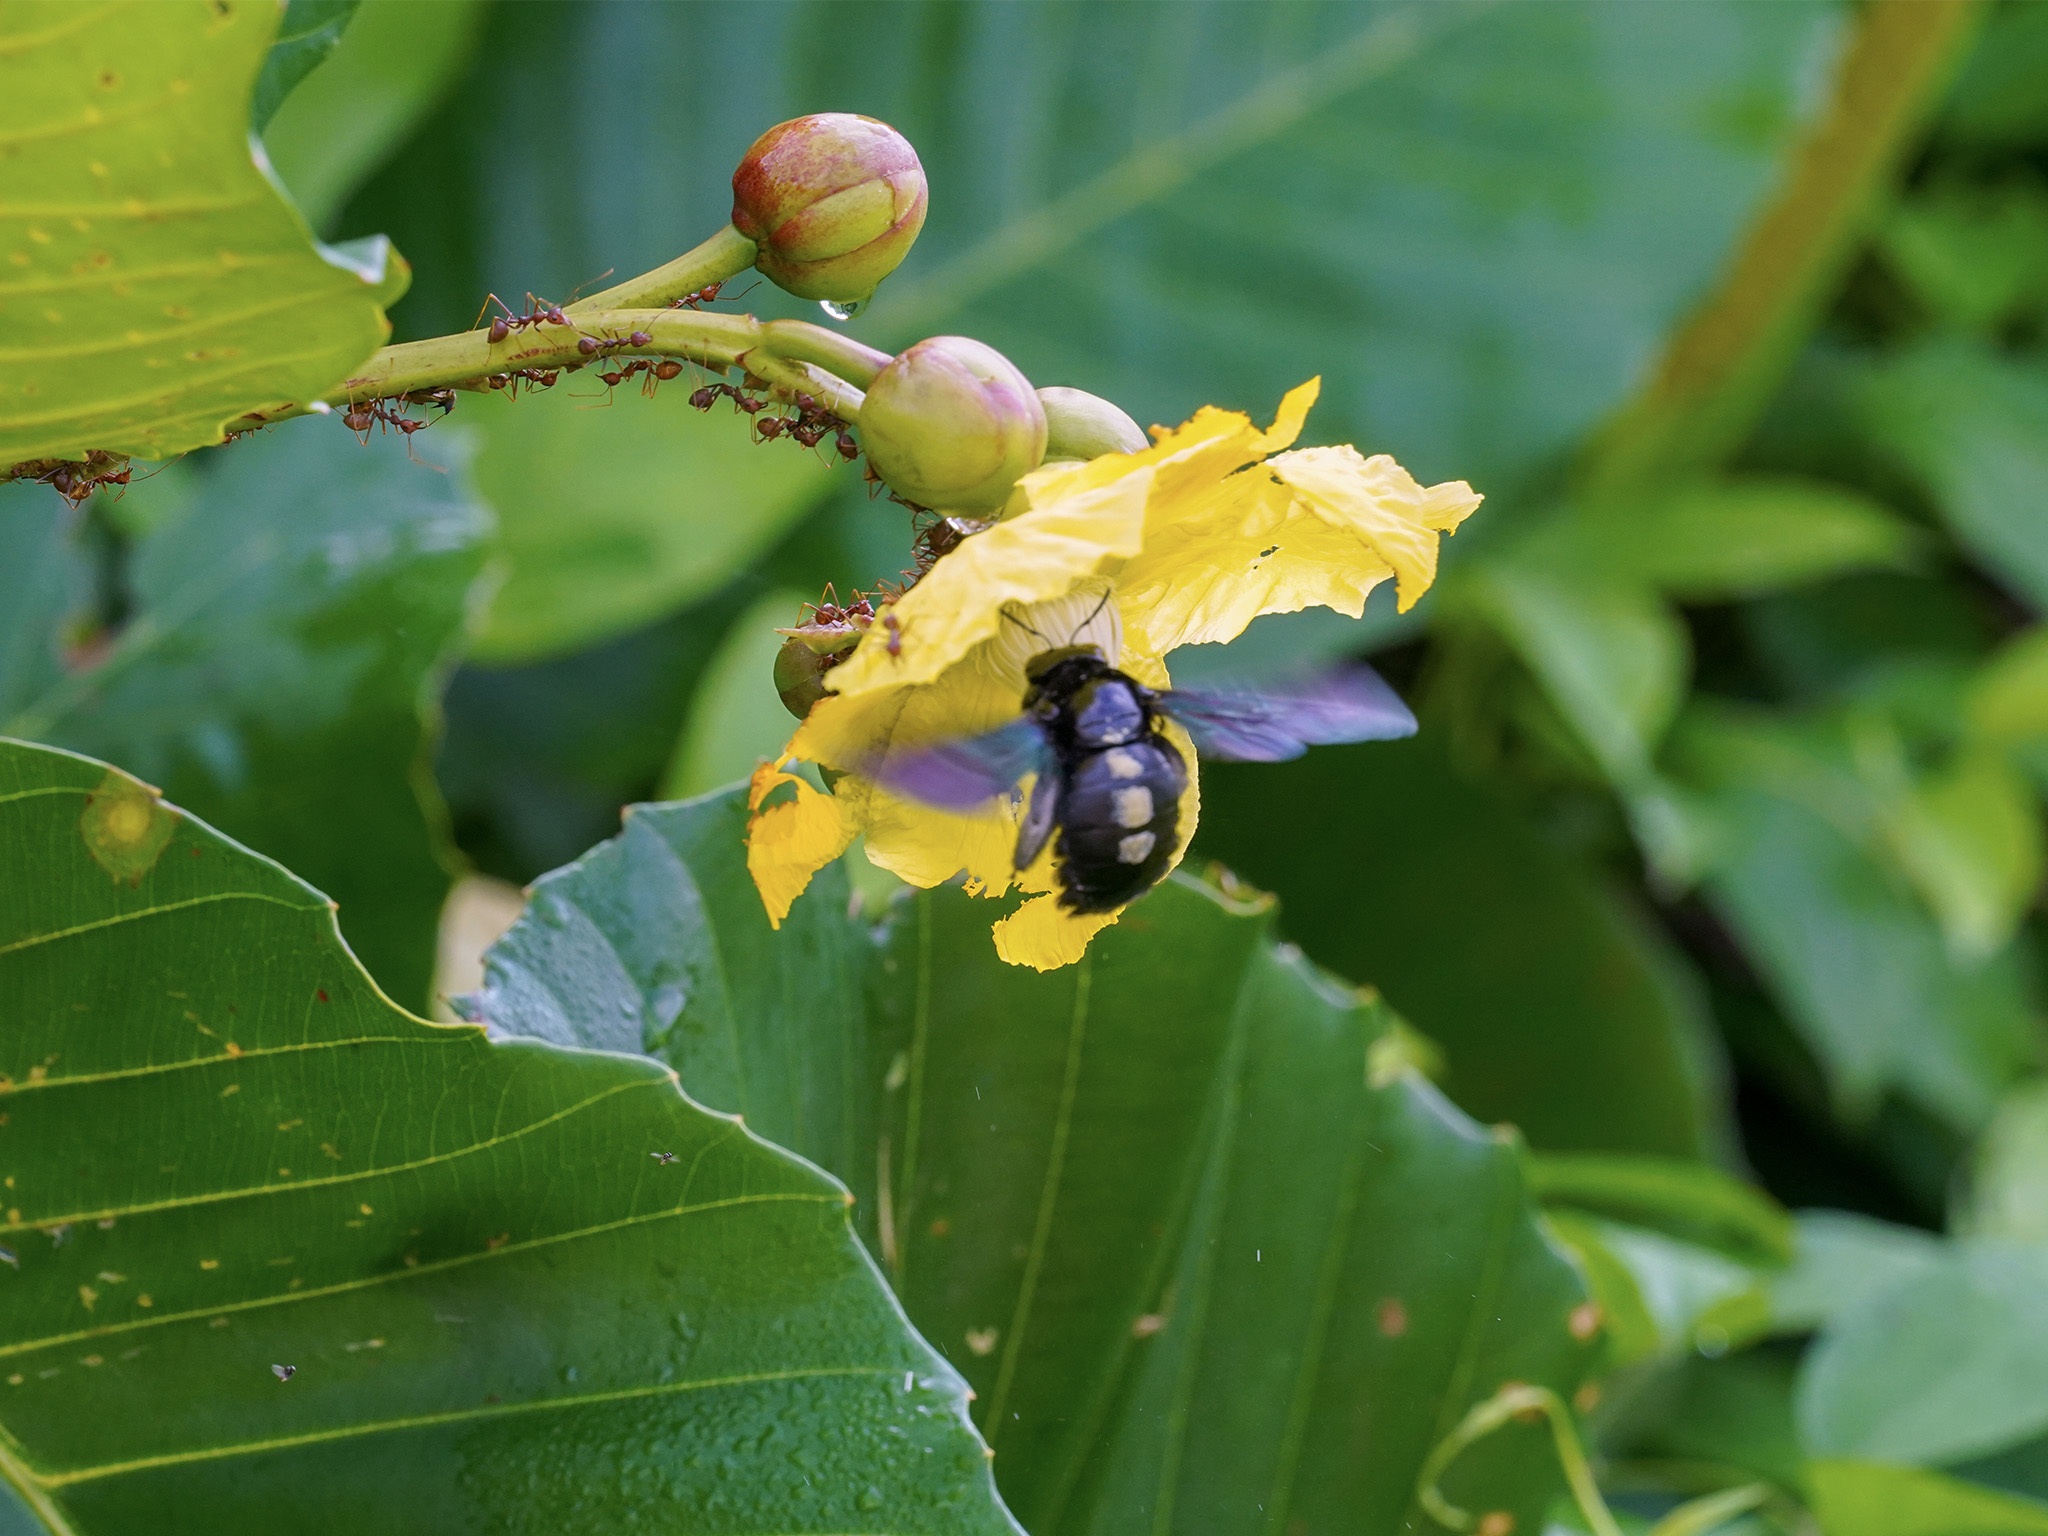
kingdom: Animalia
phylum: Arthropoda
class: Insecta
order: Hymenoptera
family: Apidae
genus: Xylocopa
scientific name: Xylocopa latipes
